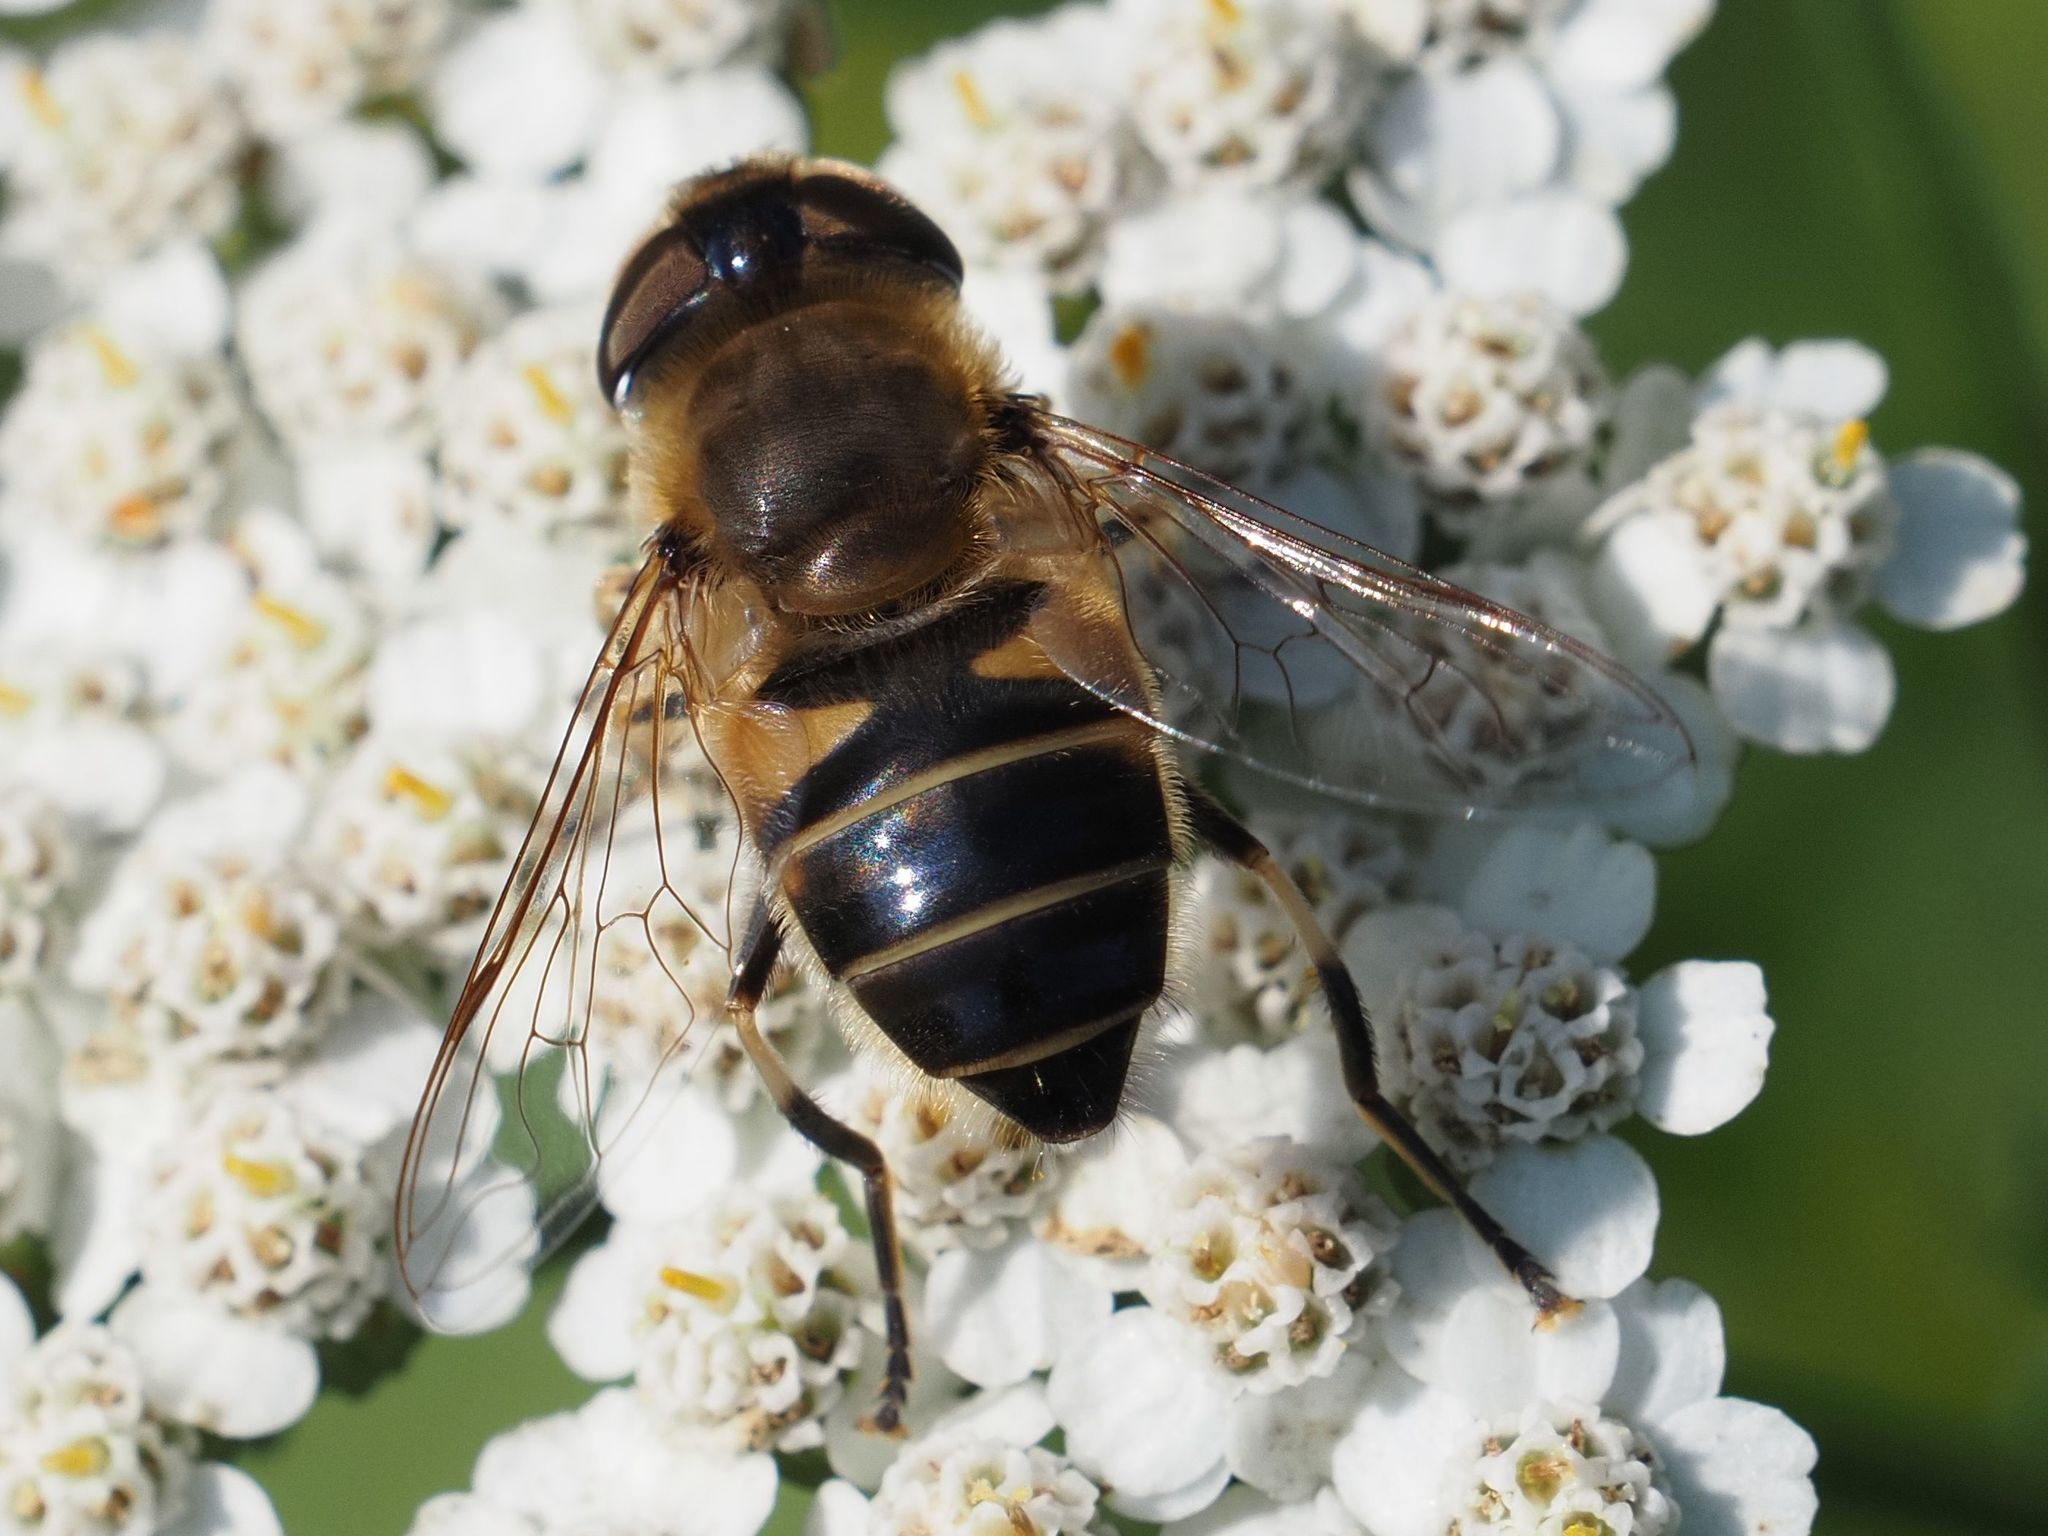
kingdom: Animalia
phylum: Arthropoda
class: Insecta
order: Diptera
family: Syrphidae
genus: Eristalis
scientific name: Eristalis pertinax
